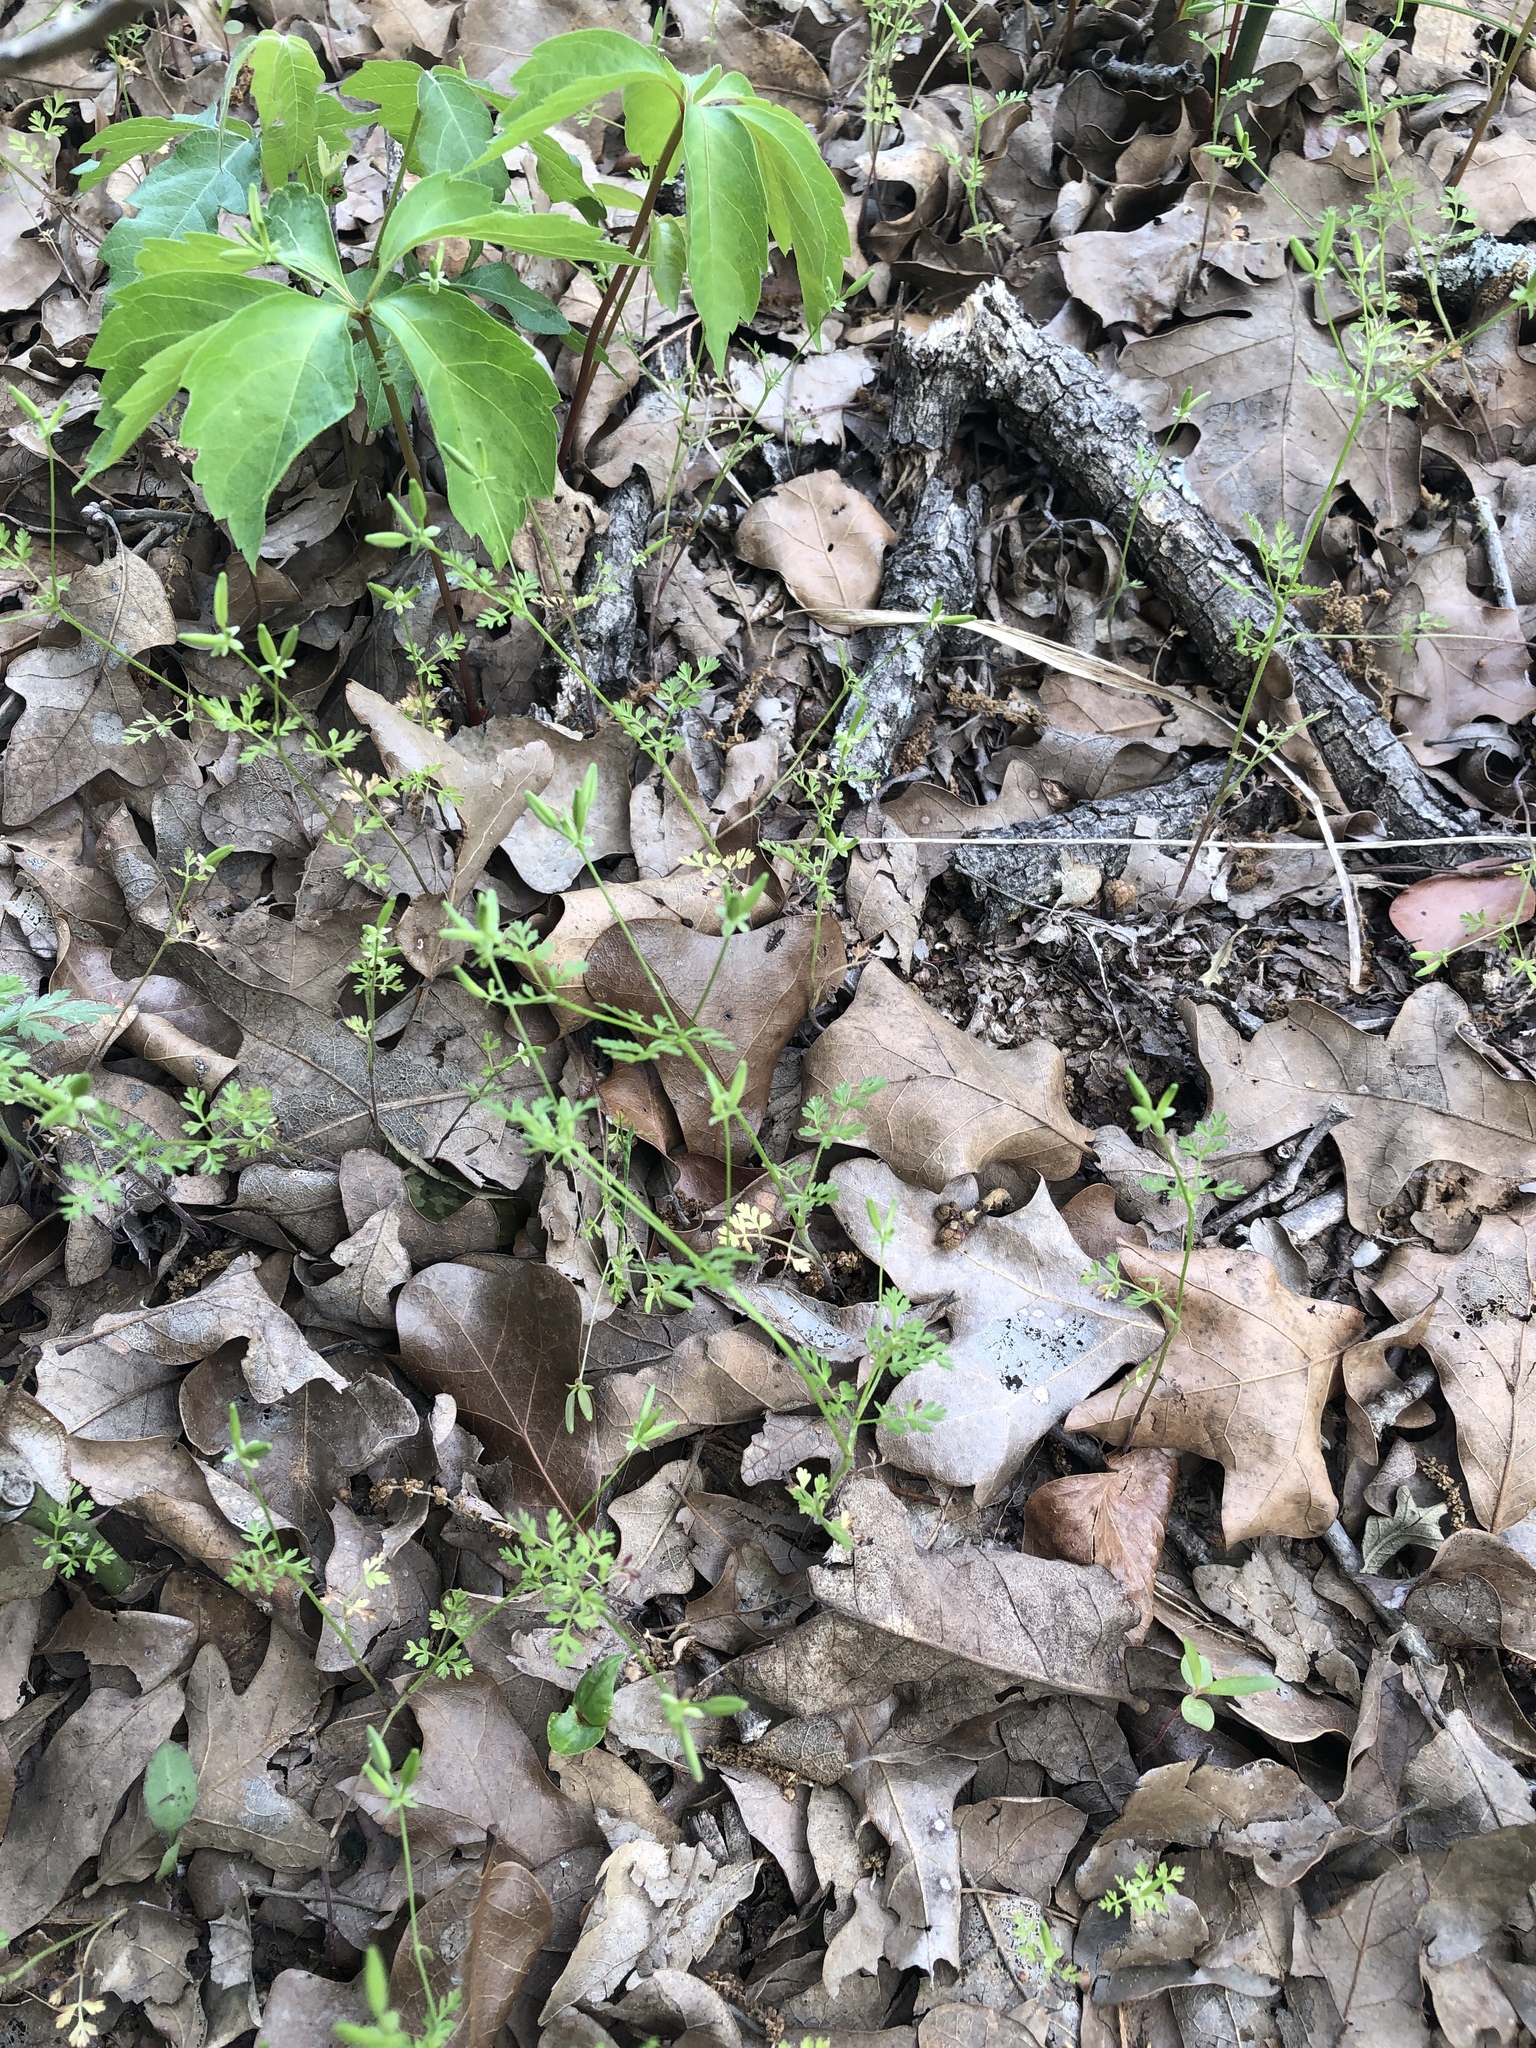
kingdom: Plantae
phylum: Tracheophyta
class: Magnoliopsida
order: Apiales
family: Apiaceae
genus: Chaerophyllum
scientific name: Chaerophyllum tainturieri
